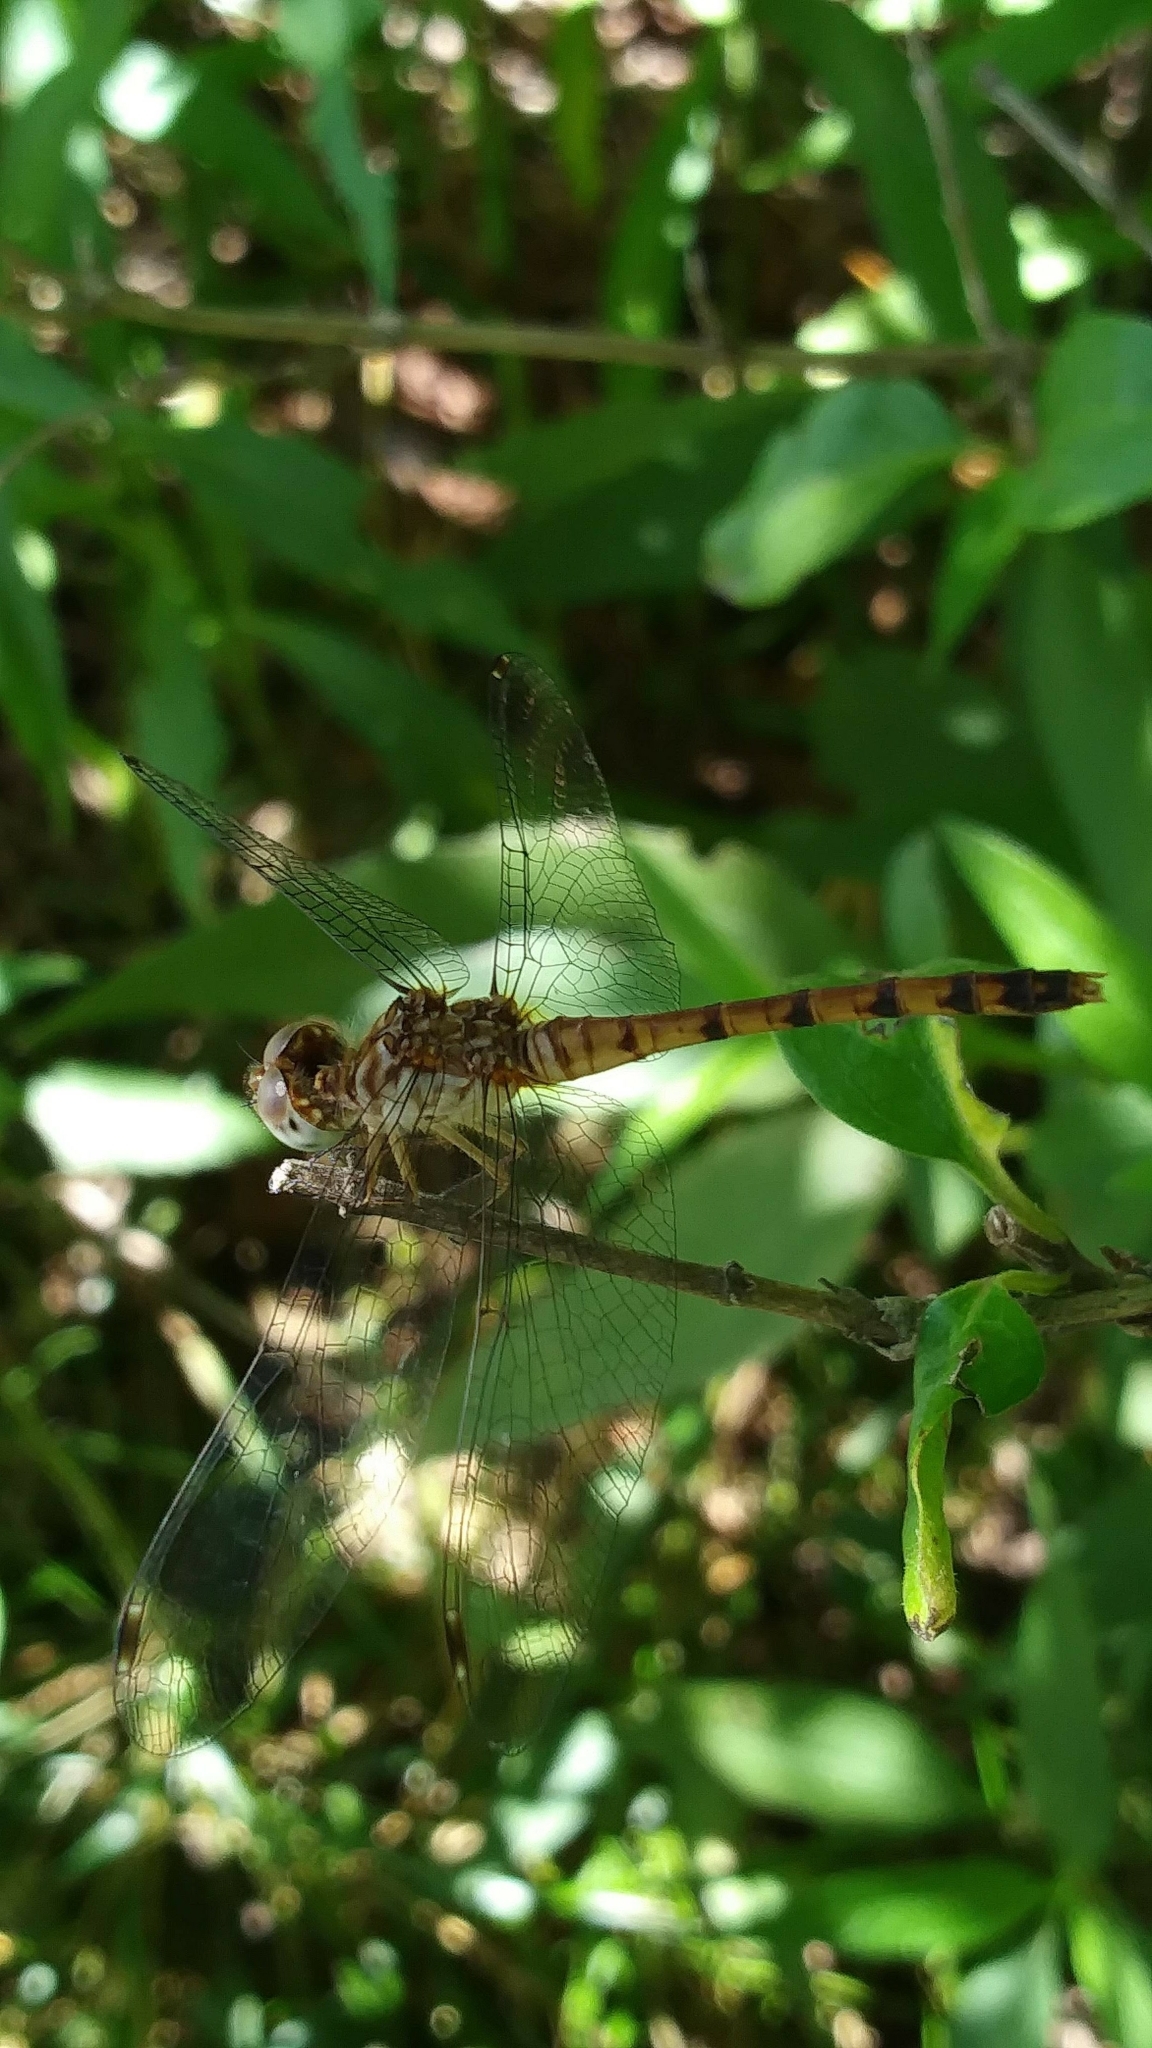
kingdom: Animalia
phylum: Arthropoda
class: Insecta
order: Odonata
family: Libellulidae
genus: Sympetrum
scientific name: Sympetrum ambiguum
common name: Blue-faced meadowhawk
